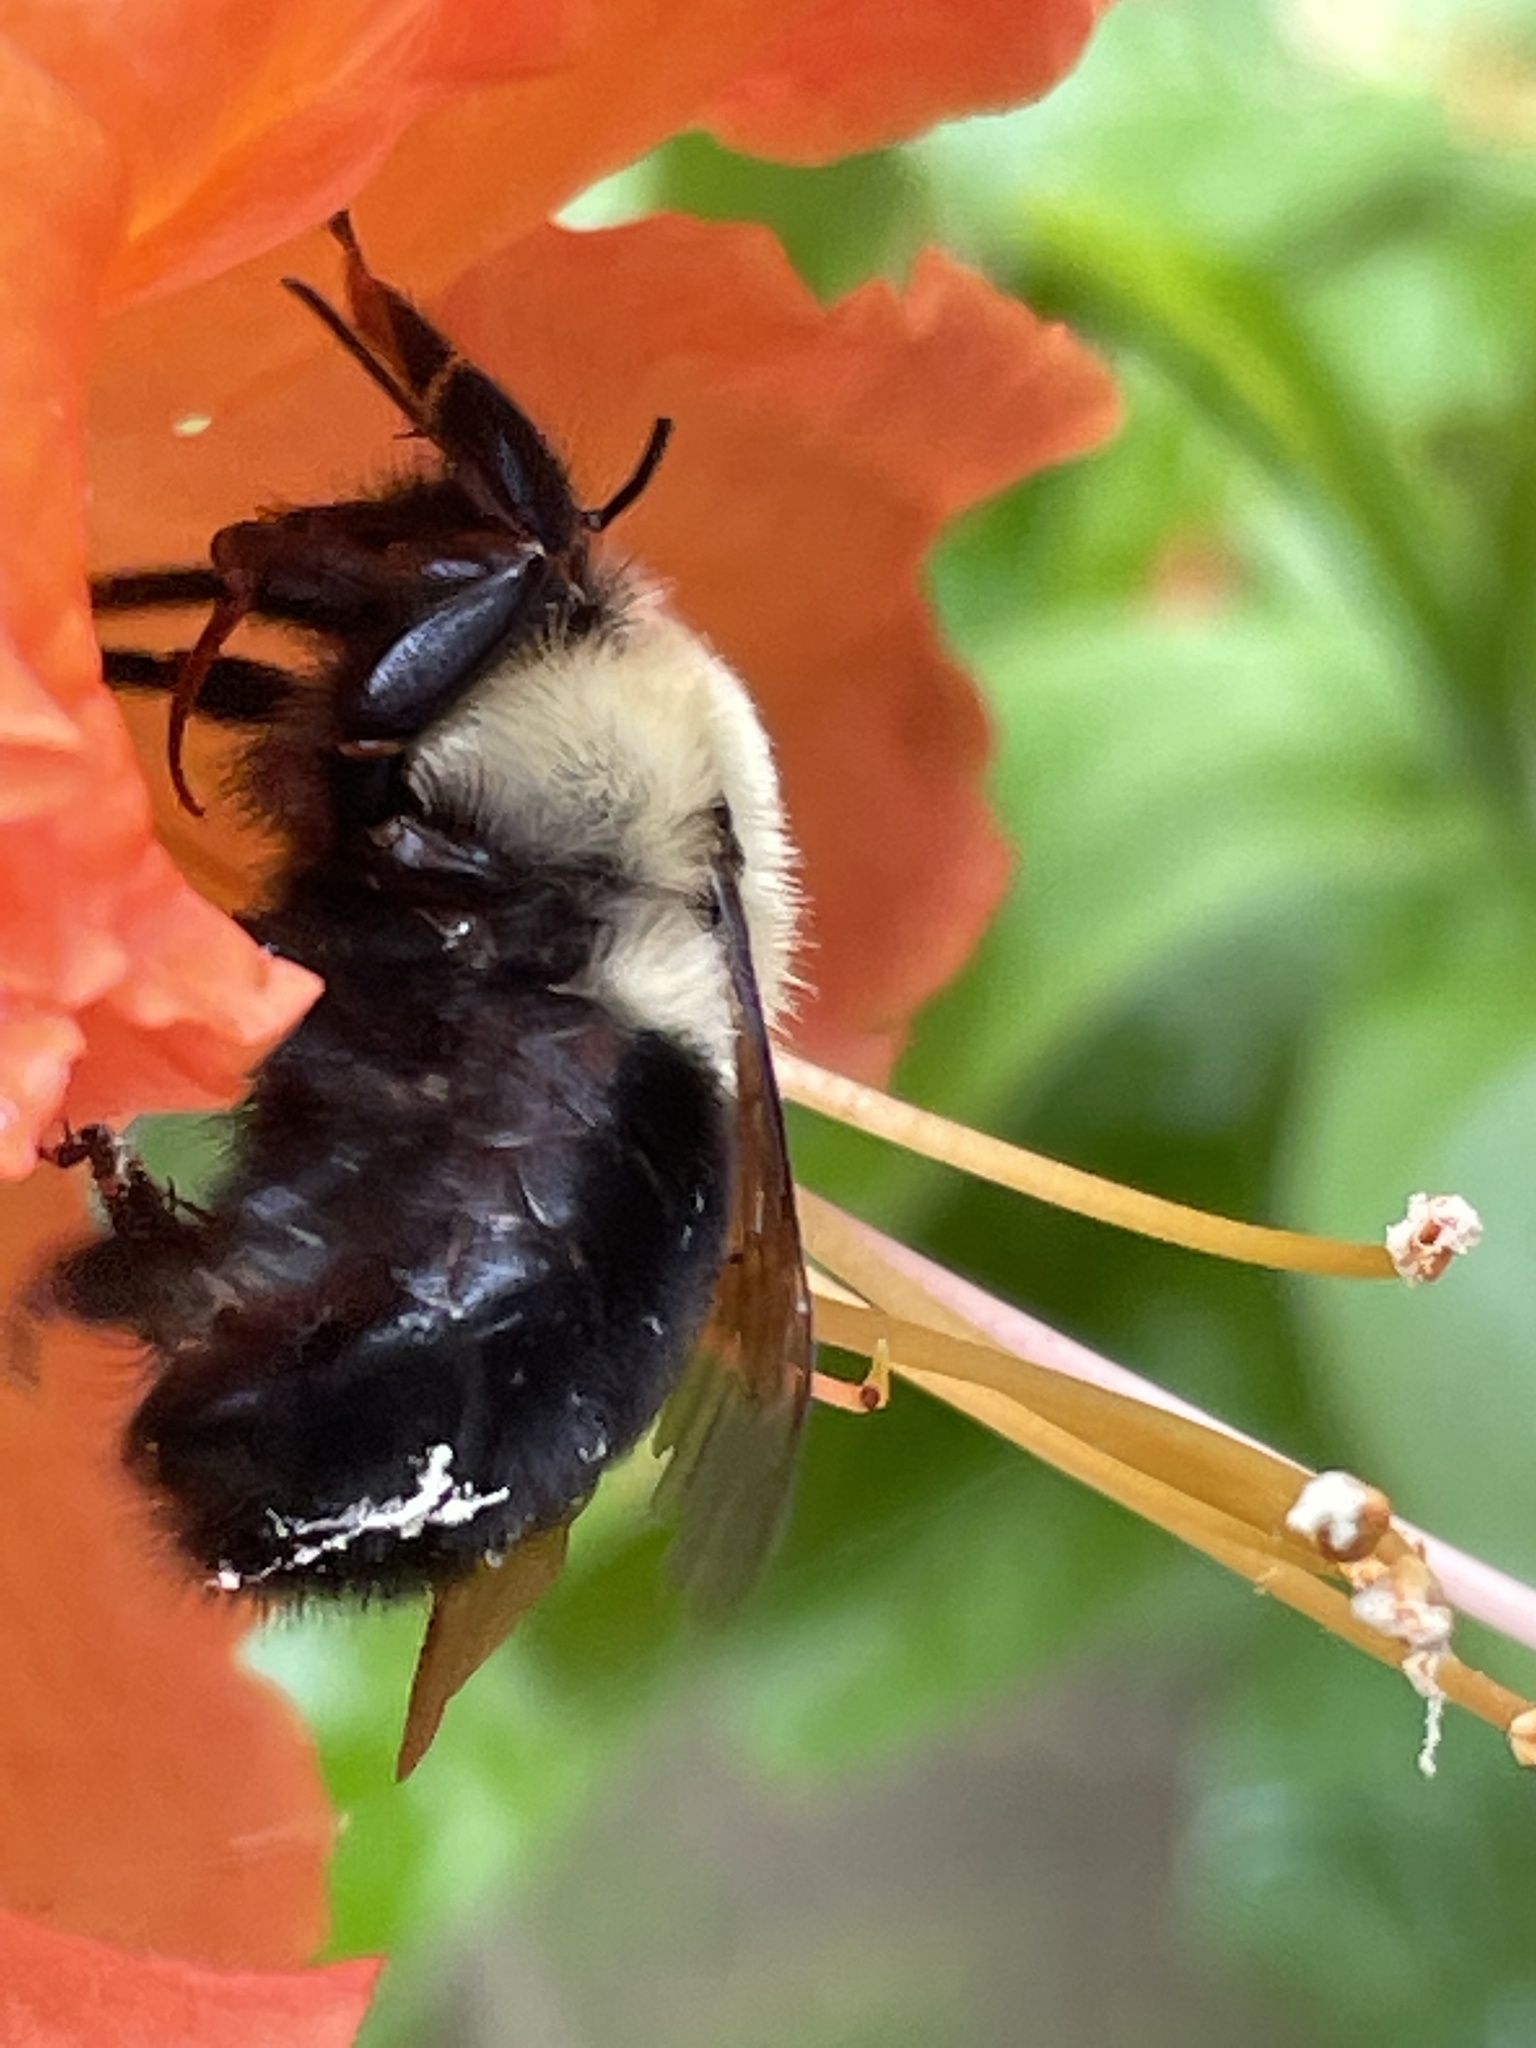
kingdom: Animalia
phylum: Arthropoda
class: Insecta
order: Hymenoptera
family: Apidae
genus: Bombus
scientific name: Bombus bimaculatus
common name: Two-spotted bumble bee
